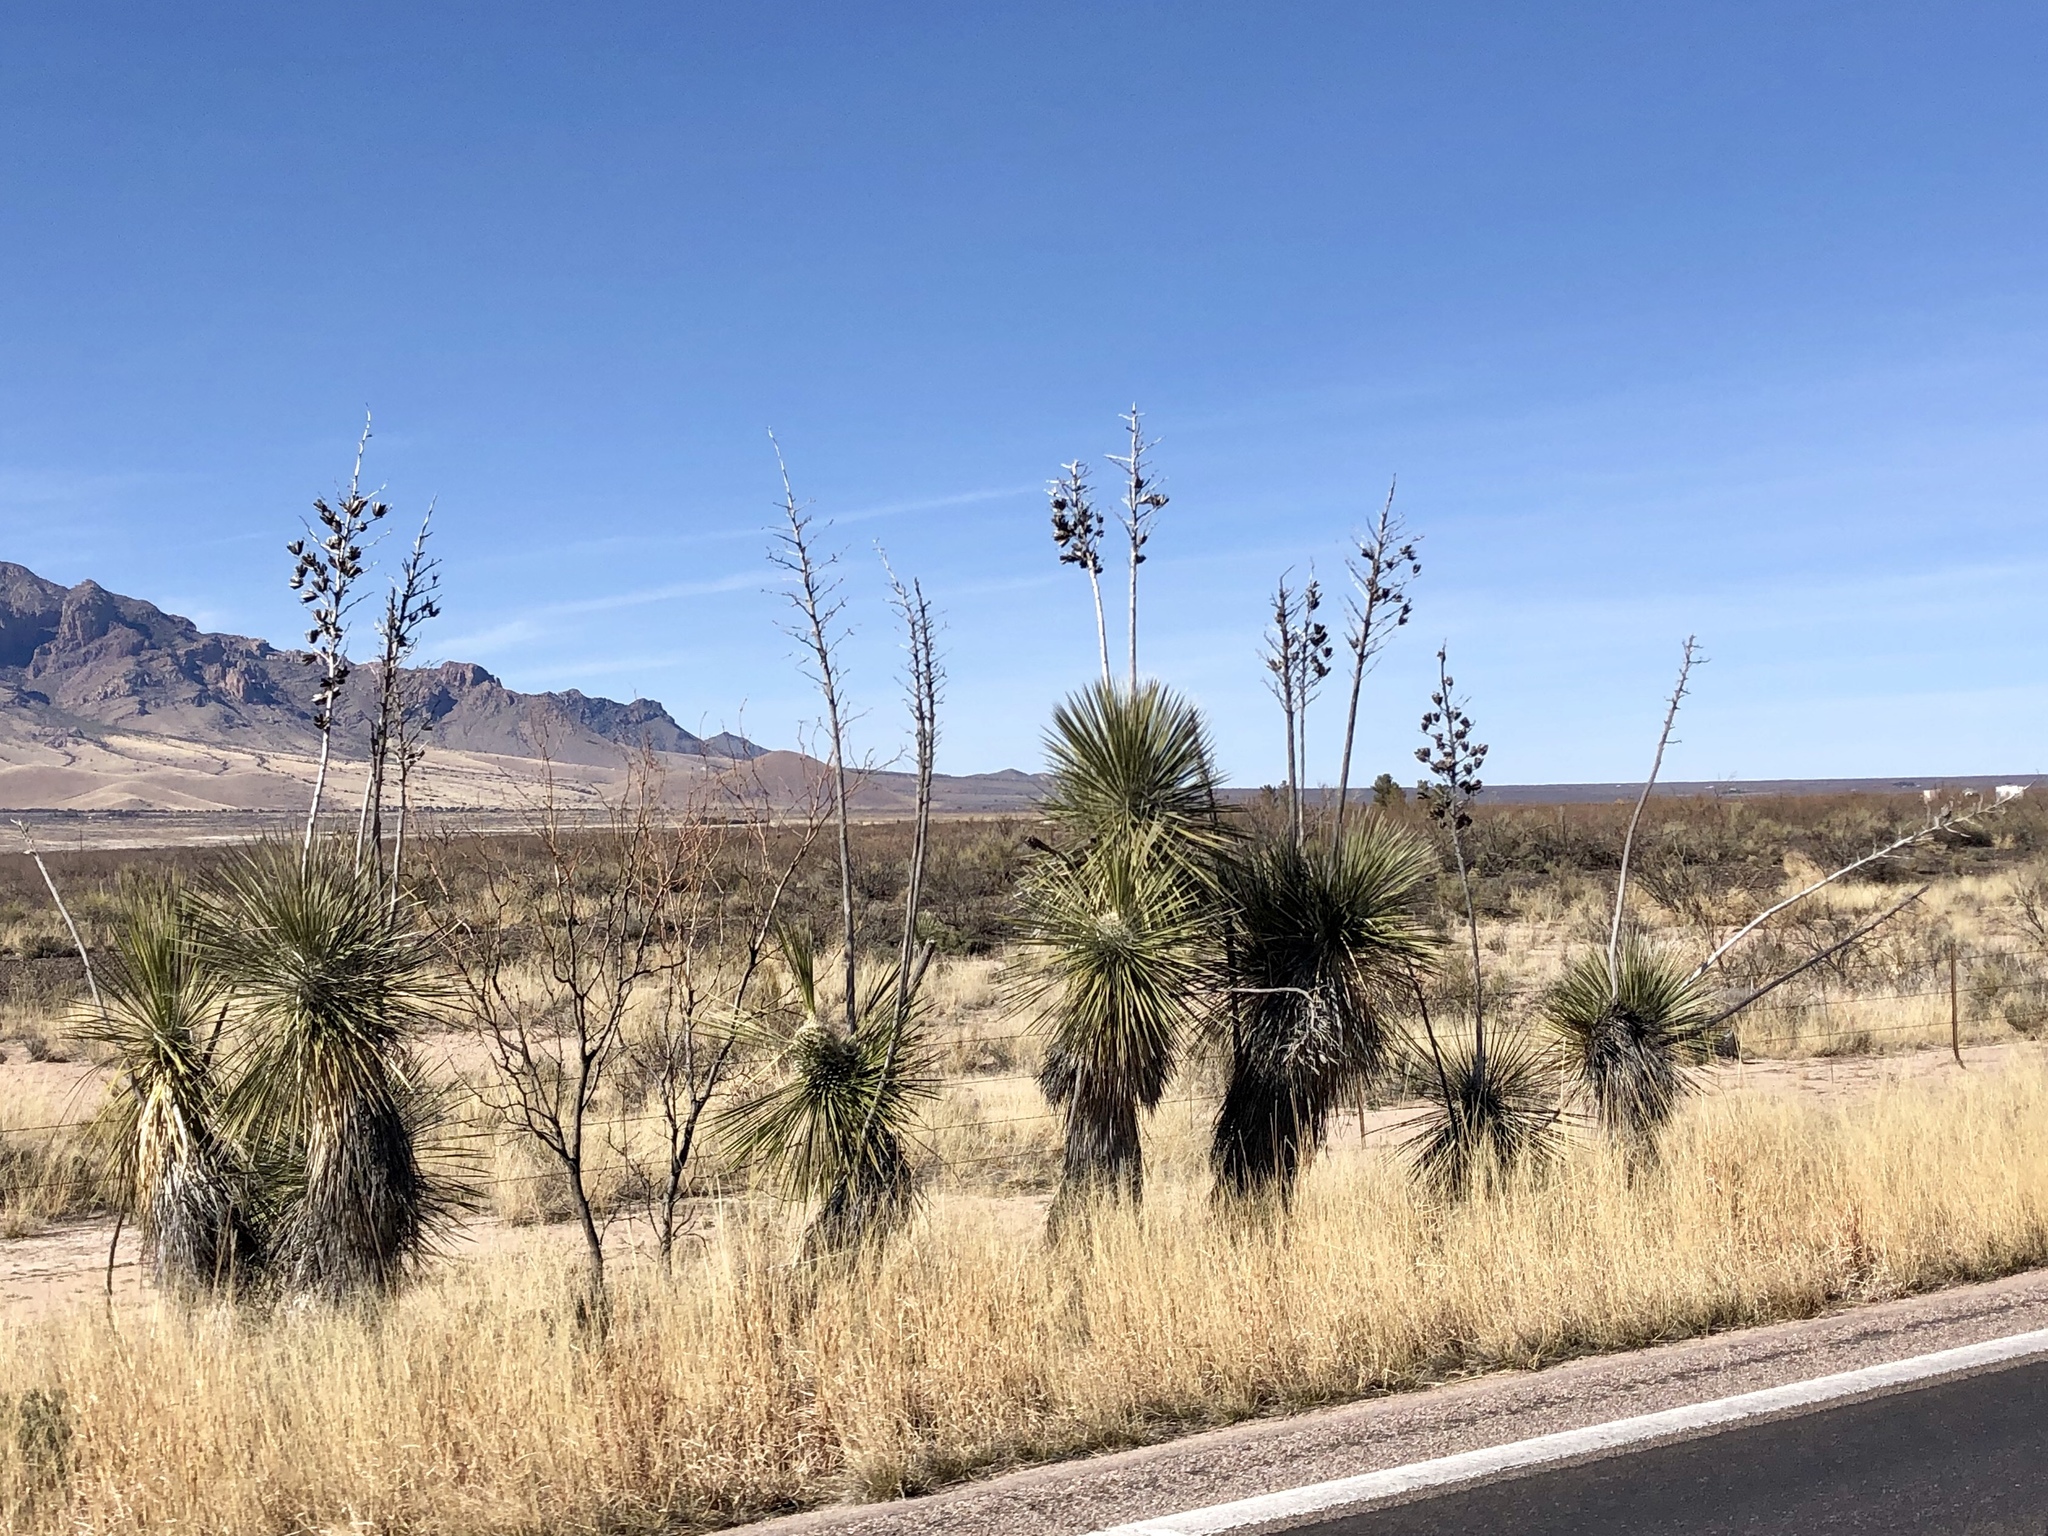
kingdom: Plantae
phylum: Tracheophyta
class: Liliopsida
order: Asparagales
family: Asparagaceae
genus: Yucca
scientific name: Yucca elata
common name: Palmella
